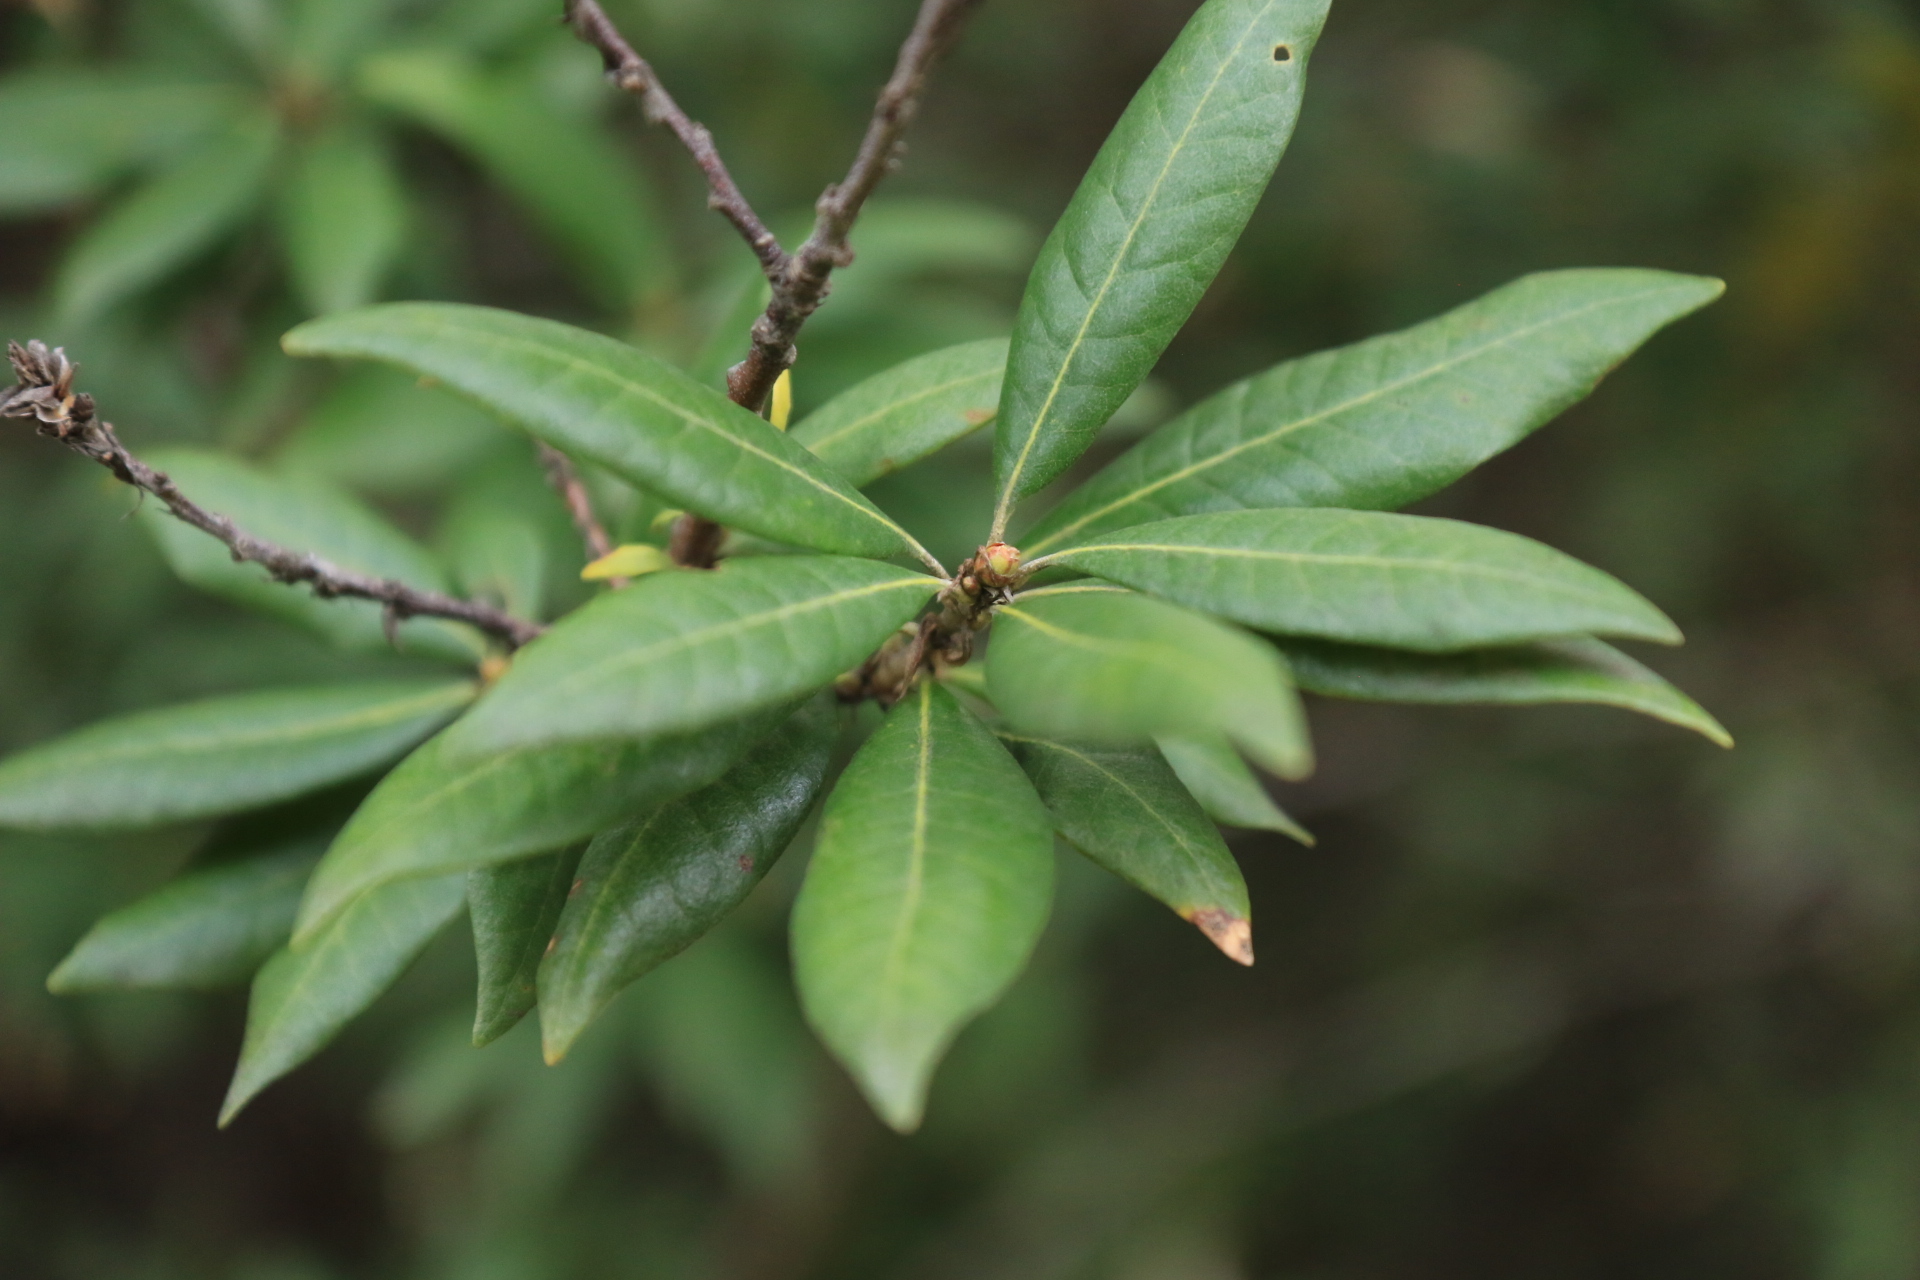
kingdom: Plantae
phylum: Tracheophyta
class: Magnoliopsida
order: Fagales
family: Fagaceae
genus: Chrysolepis
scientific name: Chrysolepis chrysophylla
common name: Giant chinquapin
